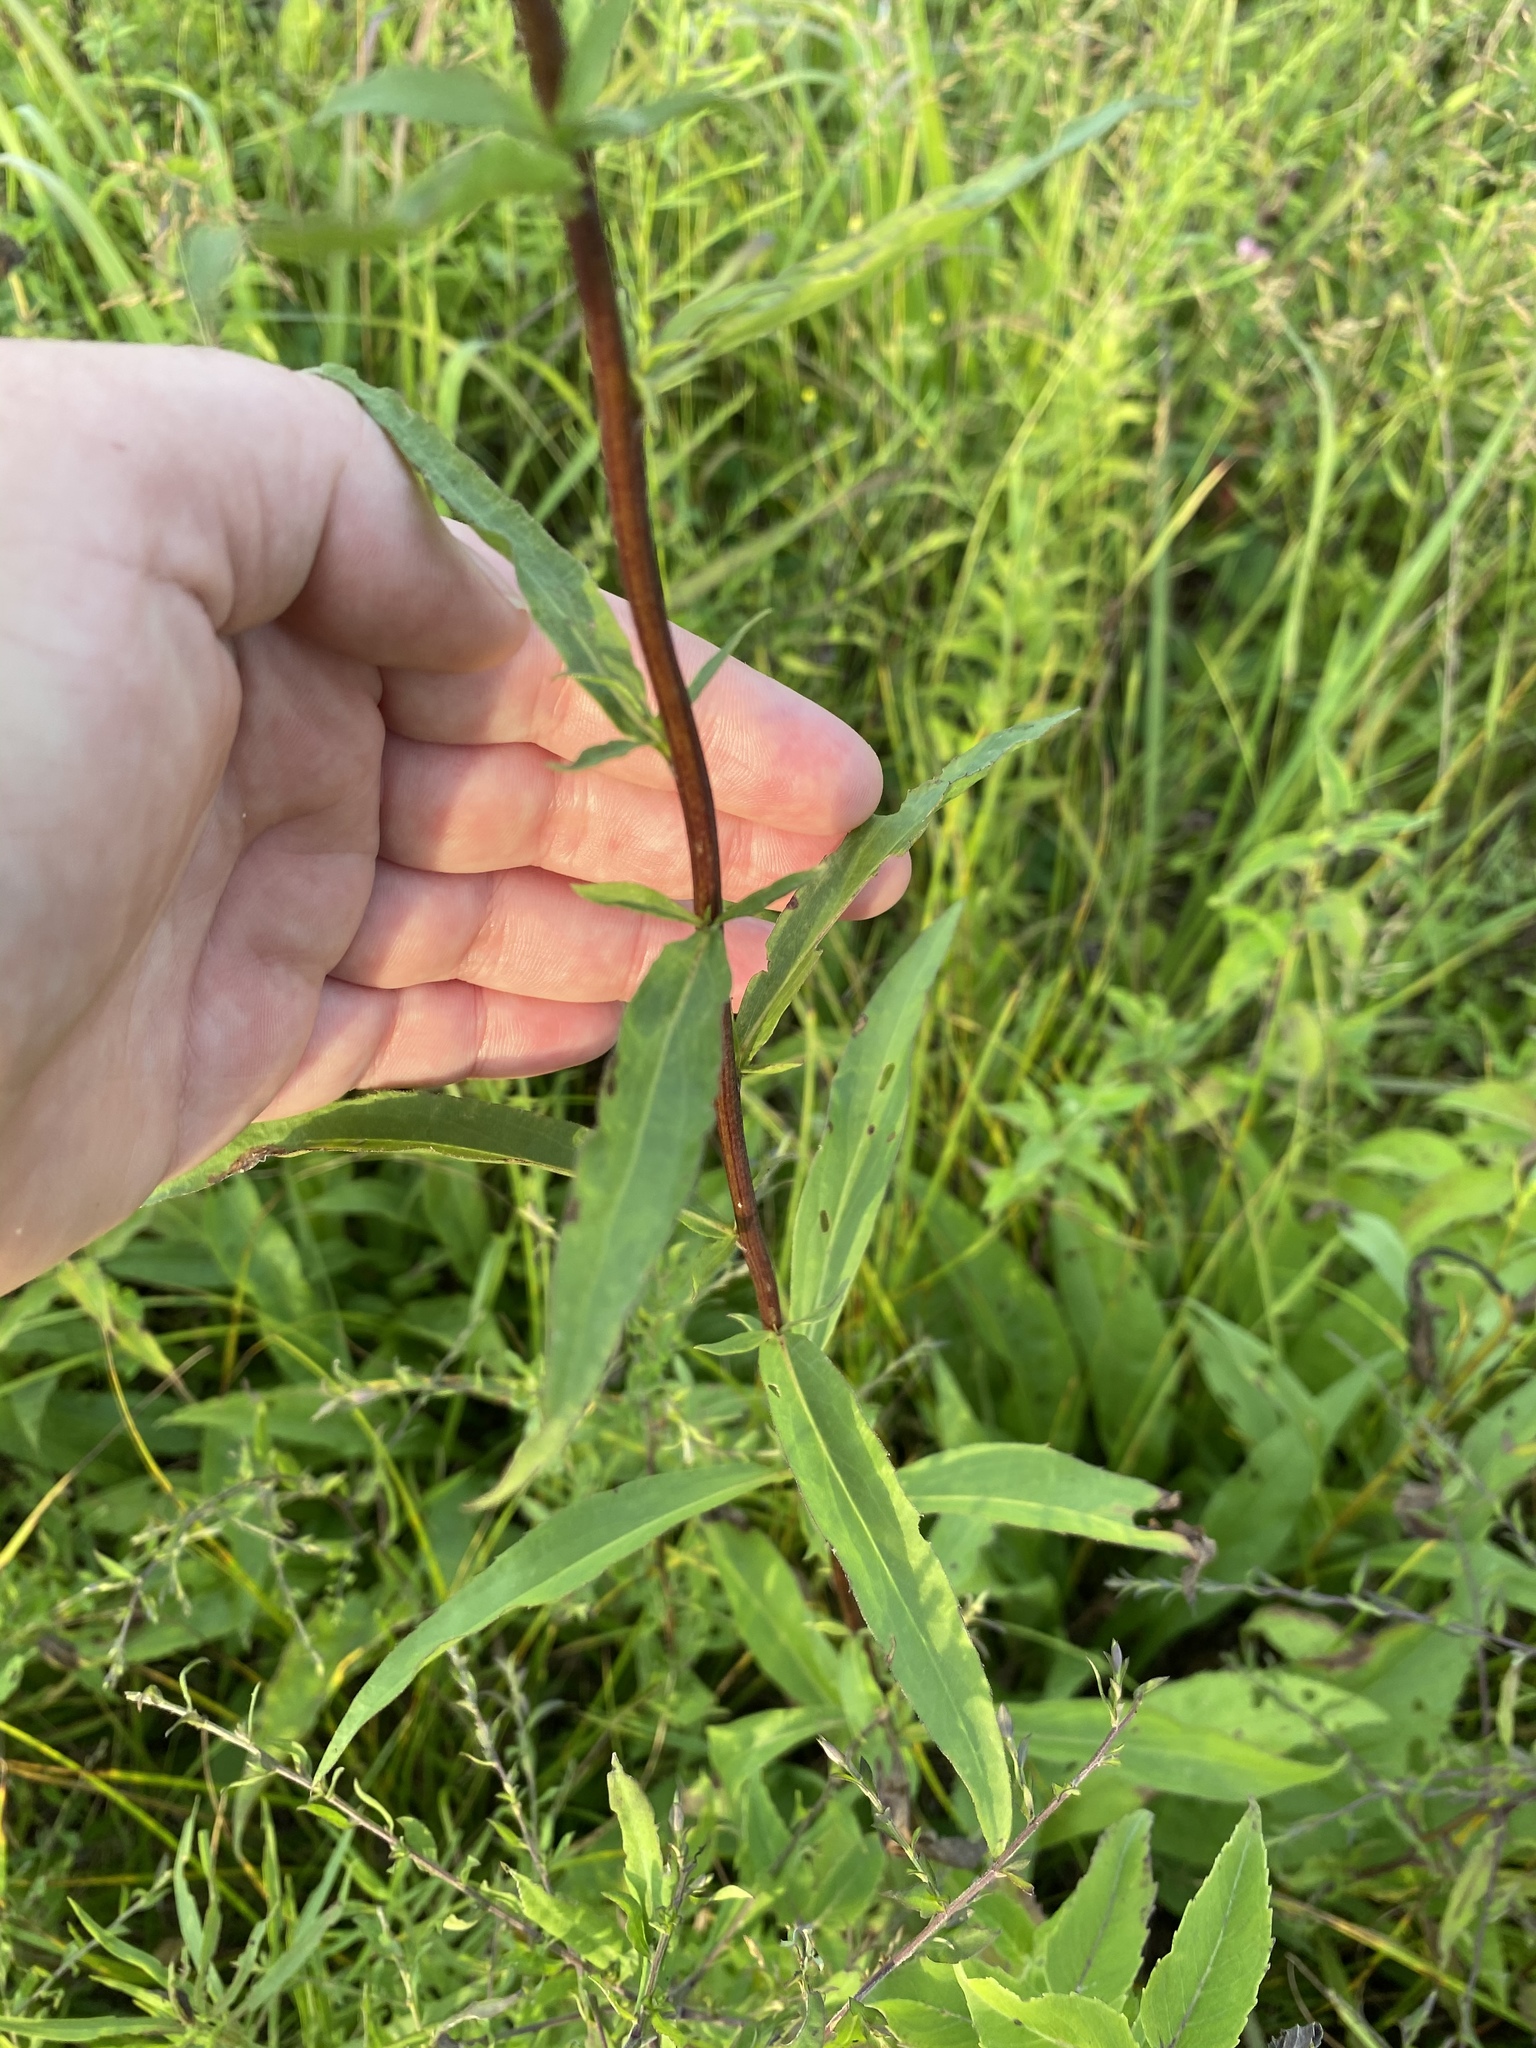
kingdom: Plantae
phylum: Tracheophyta
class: Magnoliopsida
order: Asterales
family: Asteraceae
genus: Solidago
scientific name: Solidago juncea
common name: Early goldenrod
